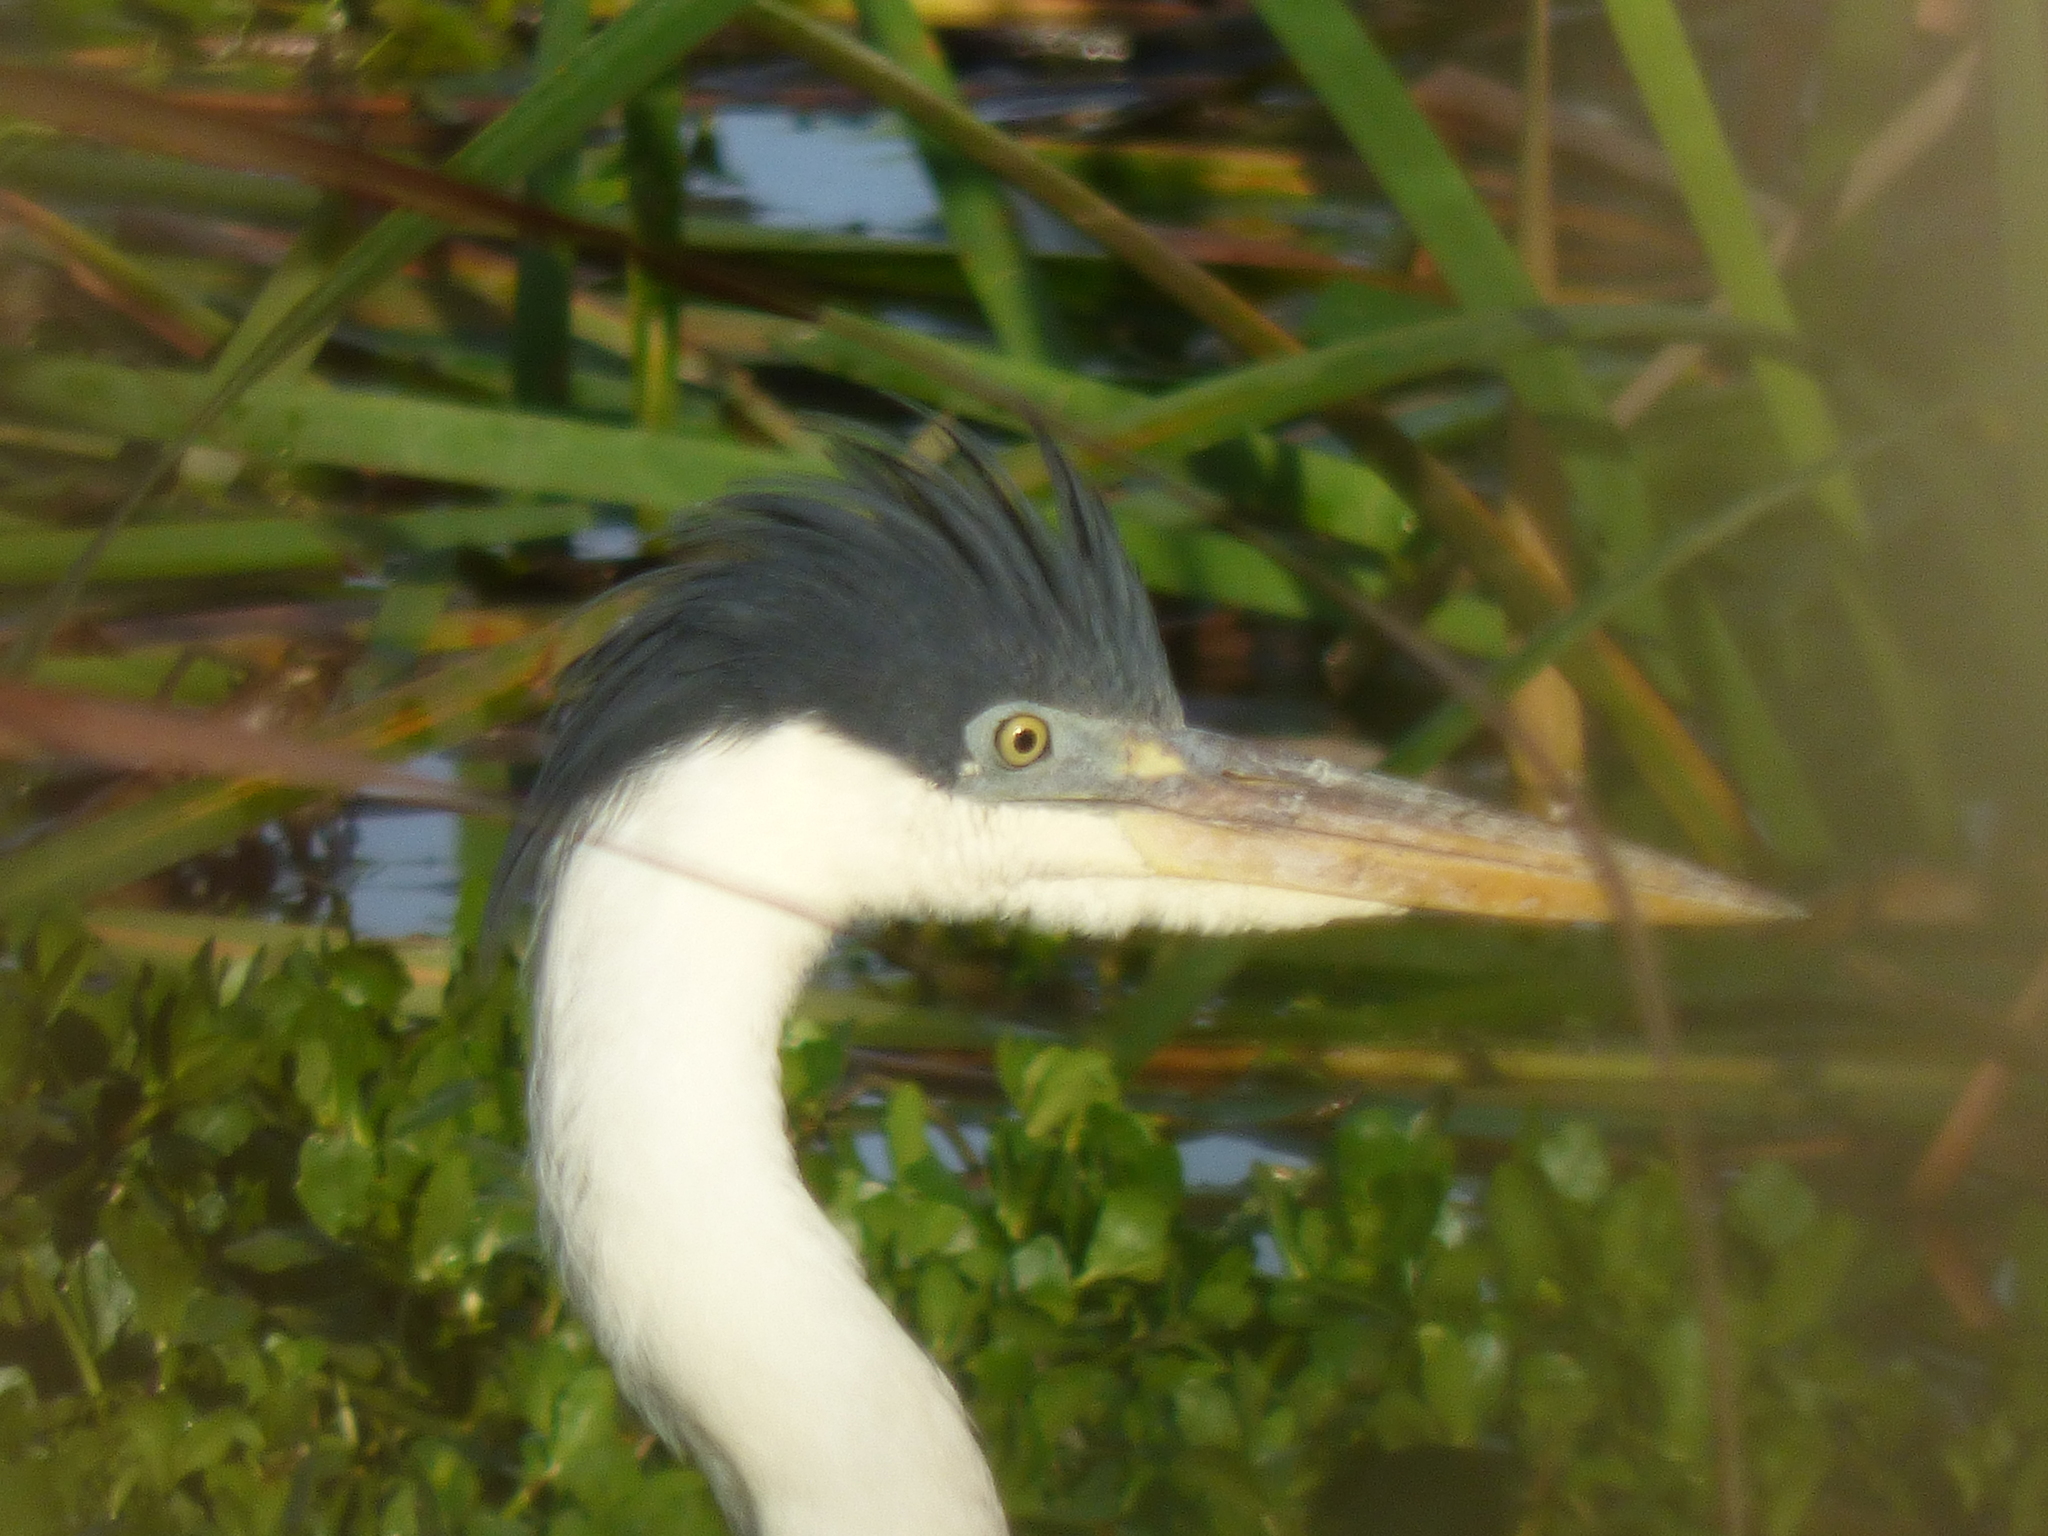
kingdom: Animalia
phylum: Chordata
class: Aves
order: Pelecaniformes
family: Ardeidae
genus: Ardea
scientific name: Ardea cocoi
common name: Cocoi heron
